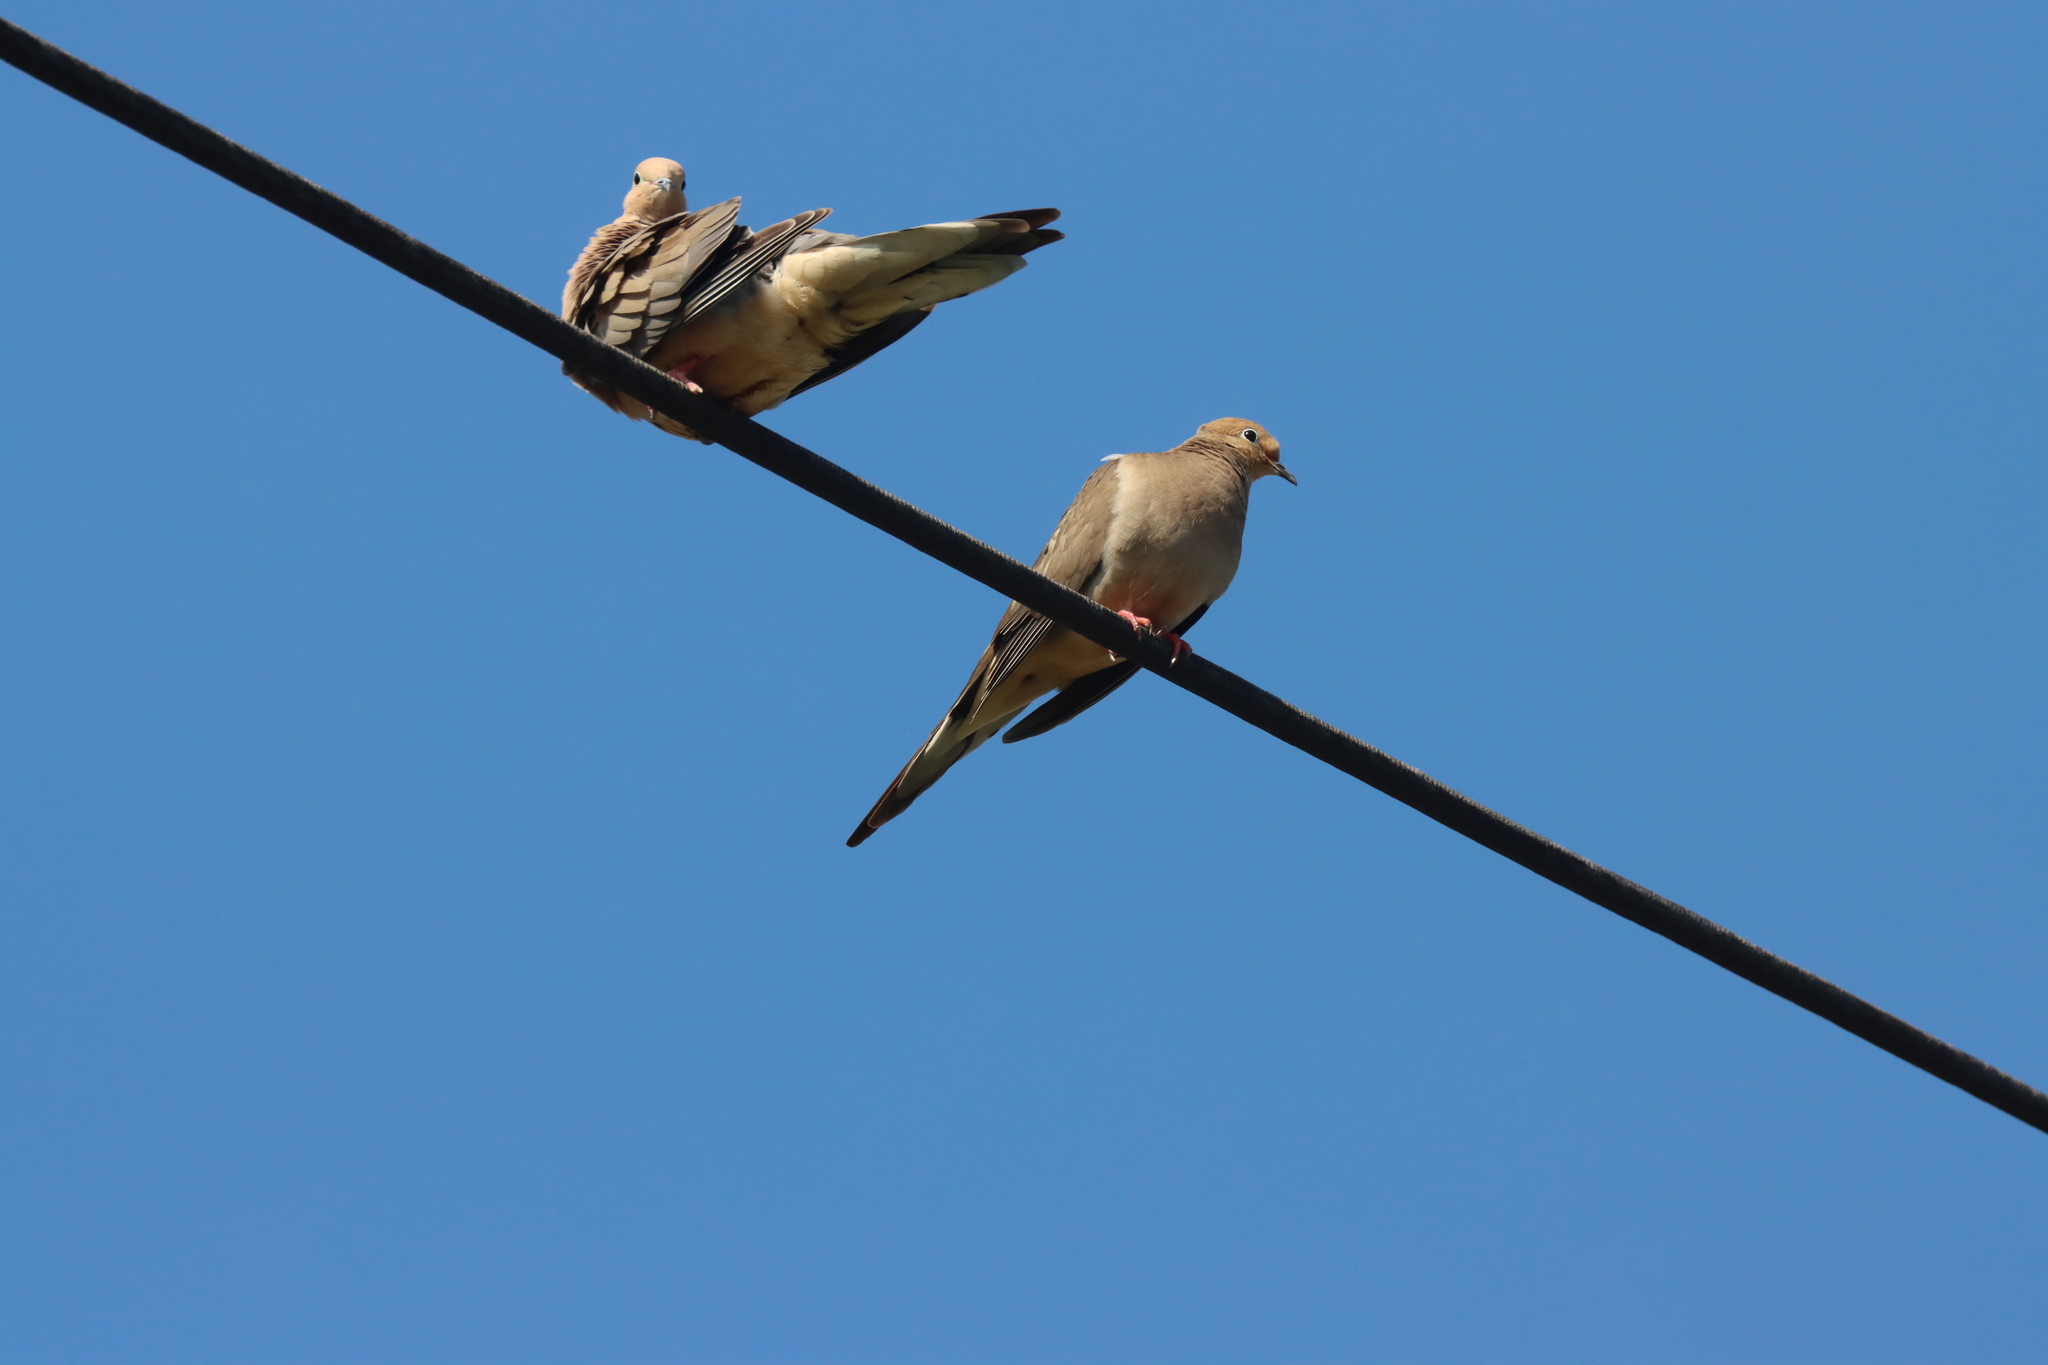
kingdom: Animalia
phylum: Chordata
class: Aves
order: Columbiformes
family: Columbidae
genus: Zenaida
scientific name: Zenaida macroura
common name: Mourning dove
